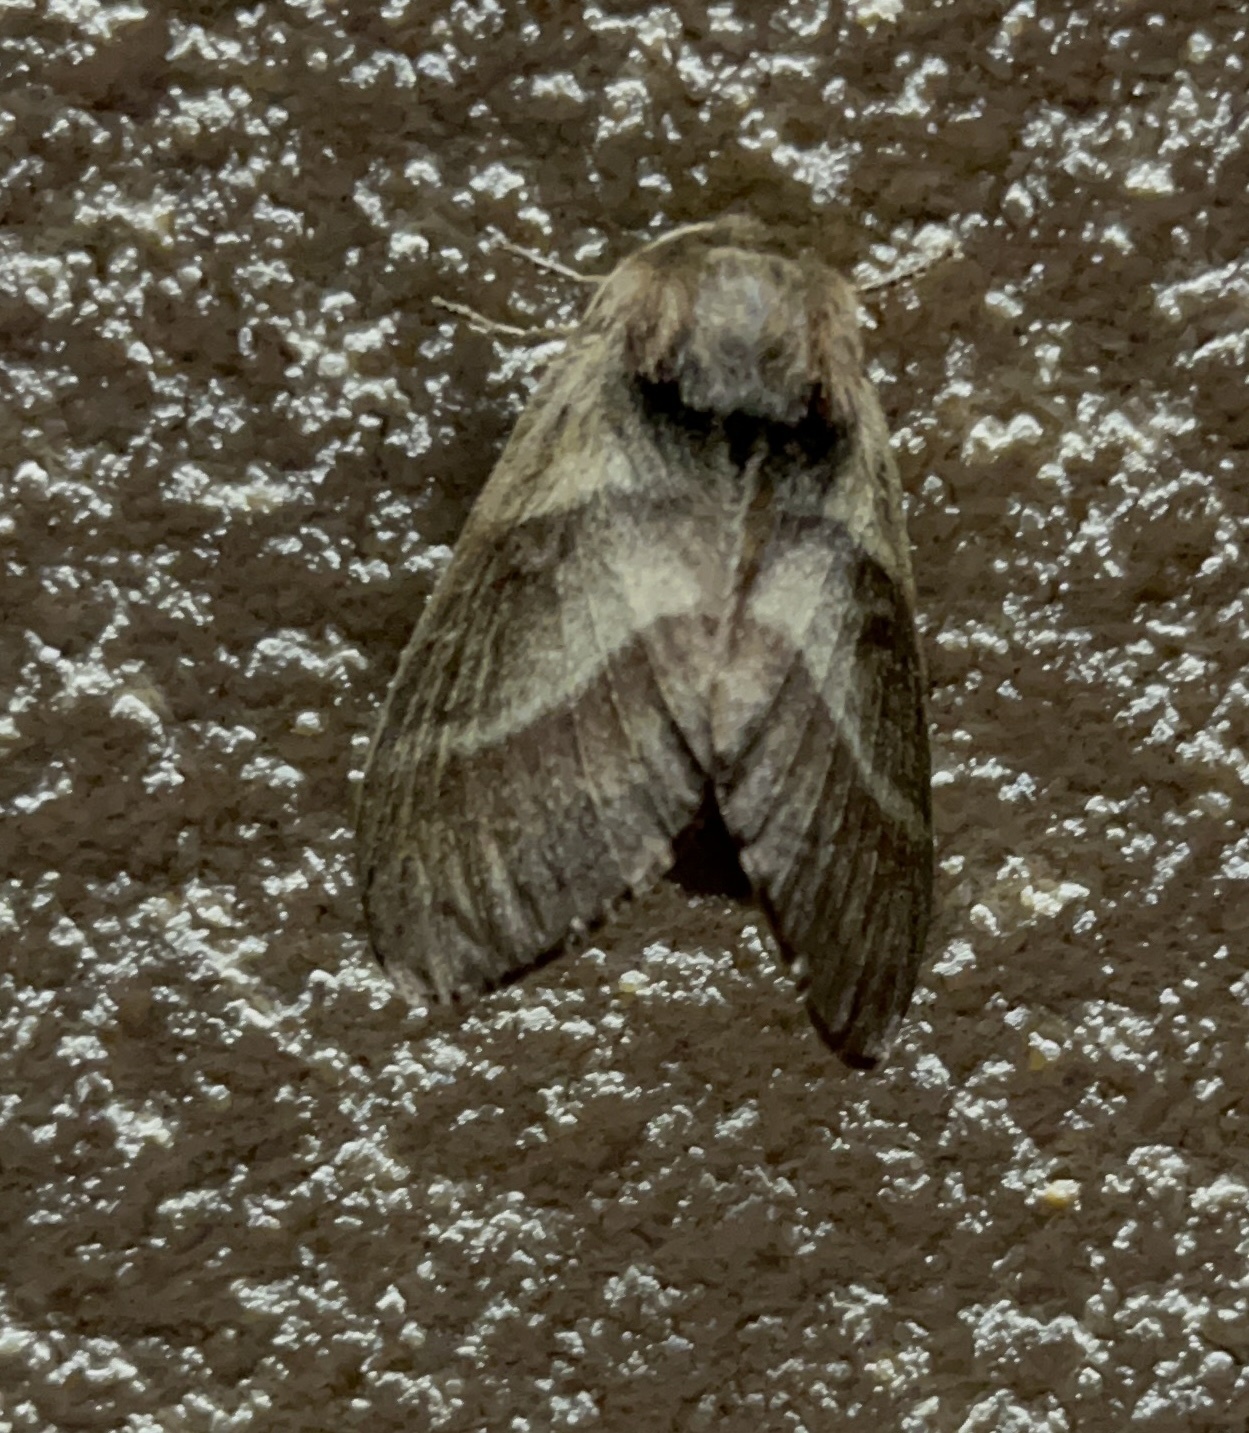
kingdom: Animalia
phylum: Arthropoda
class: Insecta
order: Lepidoptera
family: Lasiocampidae
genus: Macrothylacia
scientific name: Macrothylacia rubi
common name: Fox moth
